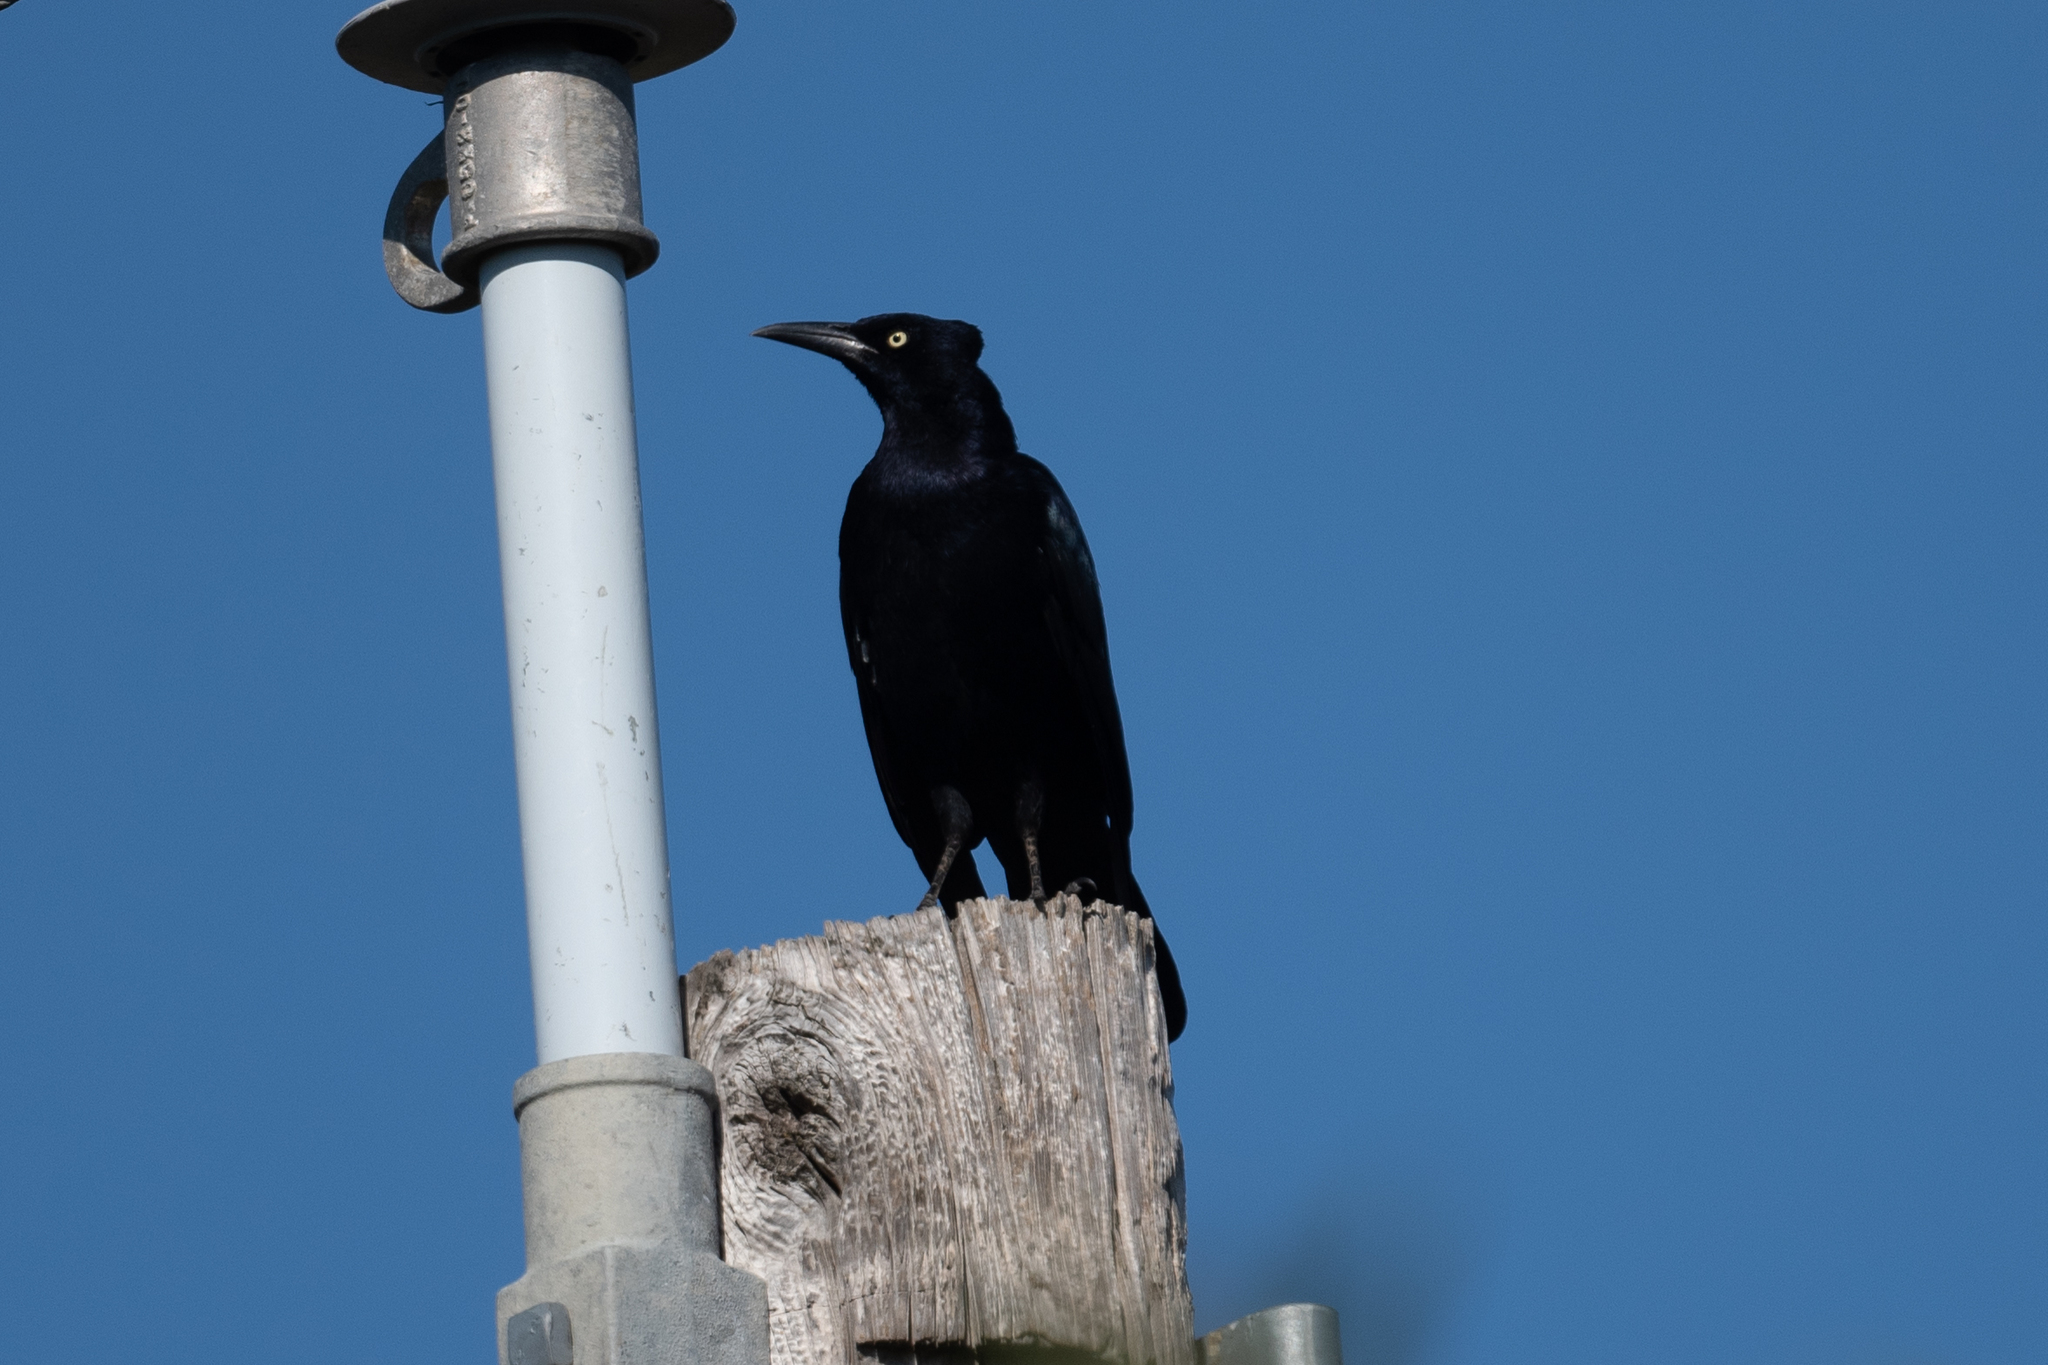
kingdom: Animalia
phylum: Chordata
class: Aves
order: Passeriformes
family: Icteridae
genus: Quiscalus
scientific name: Quiscalus mexicanus
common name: Great-tailed grackle
